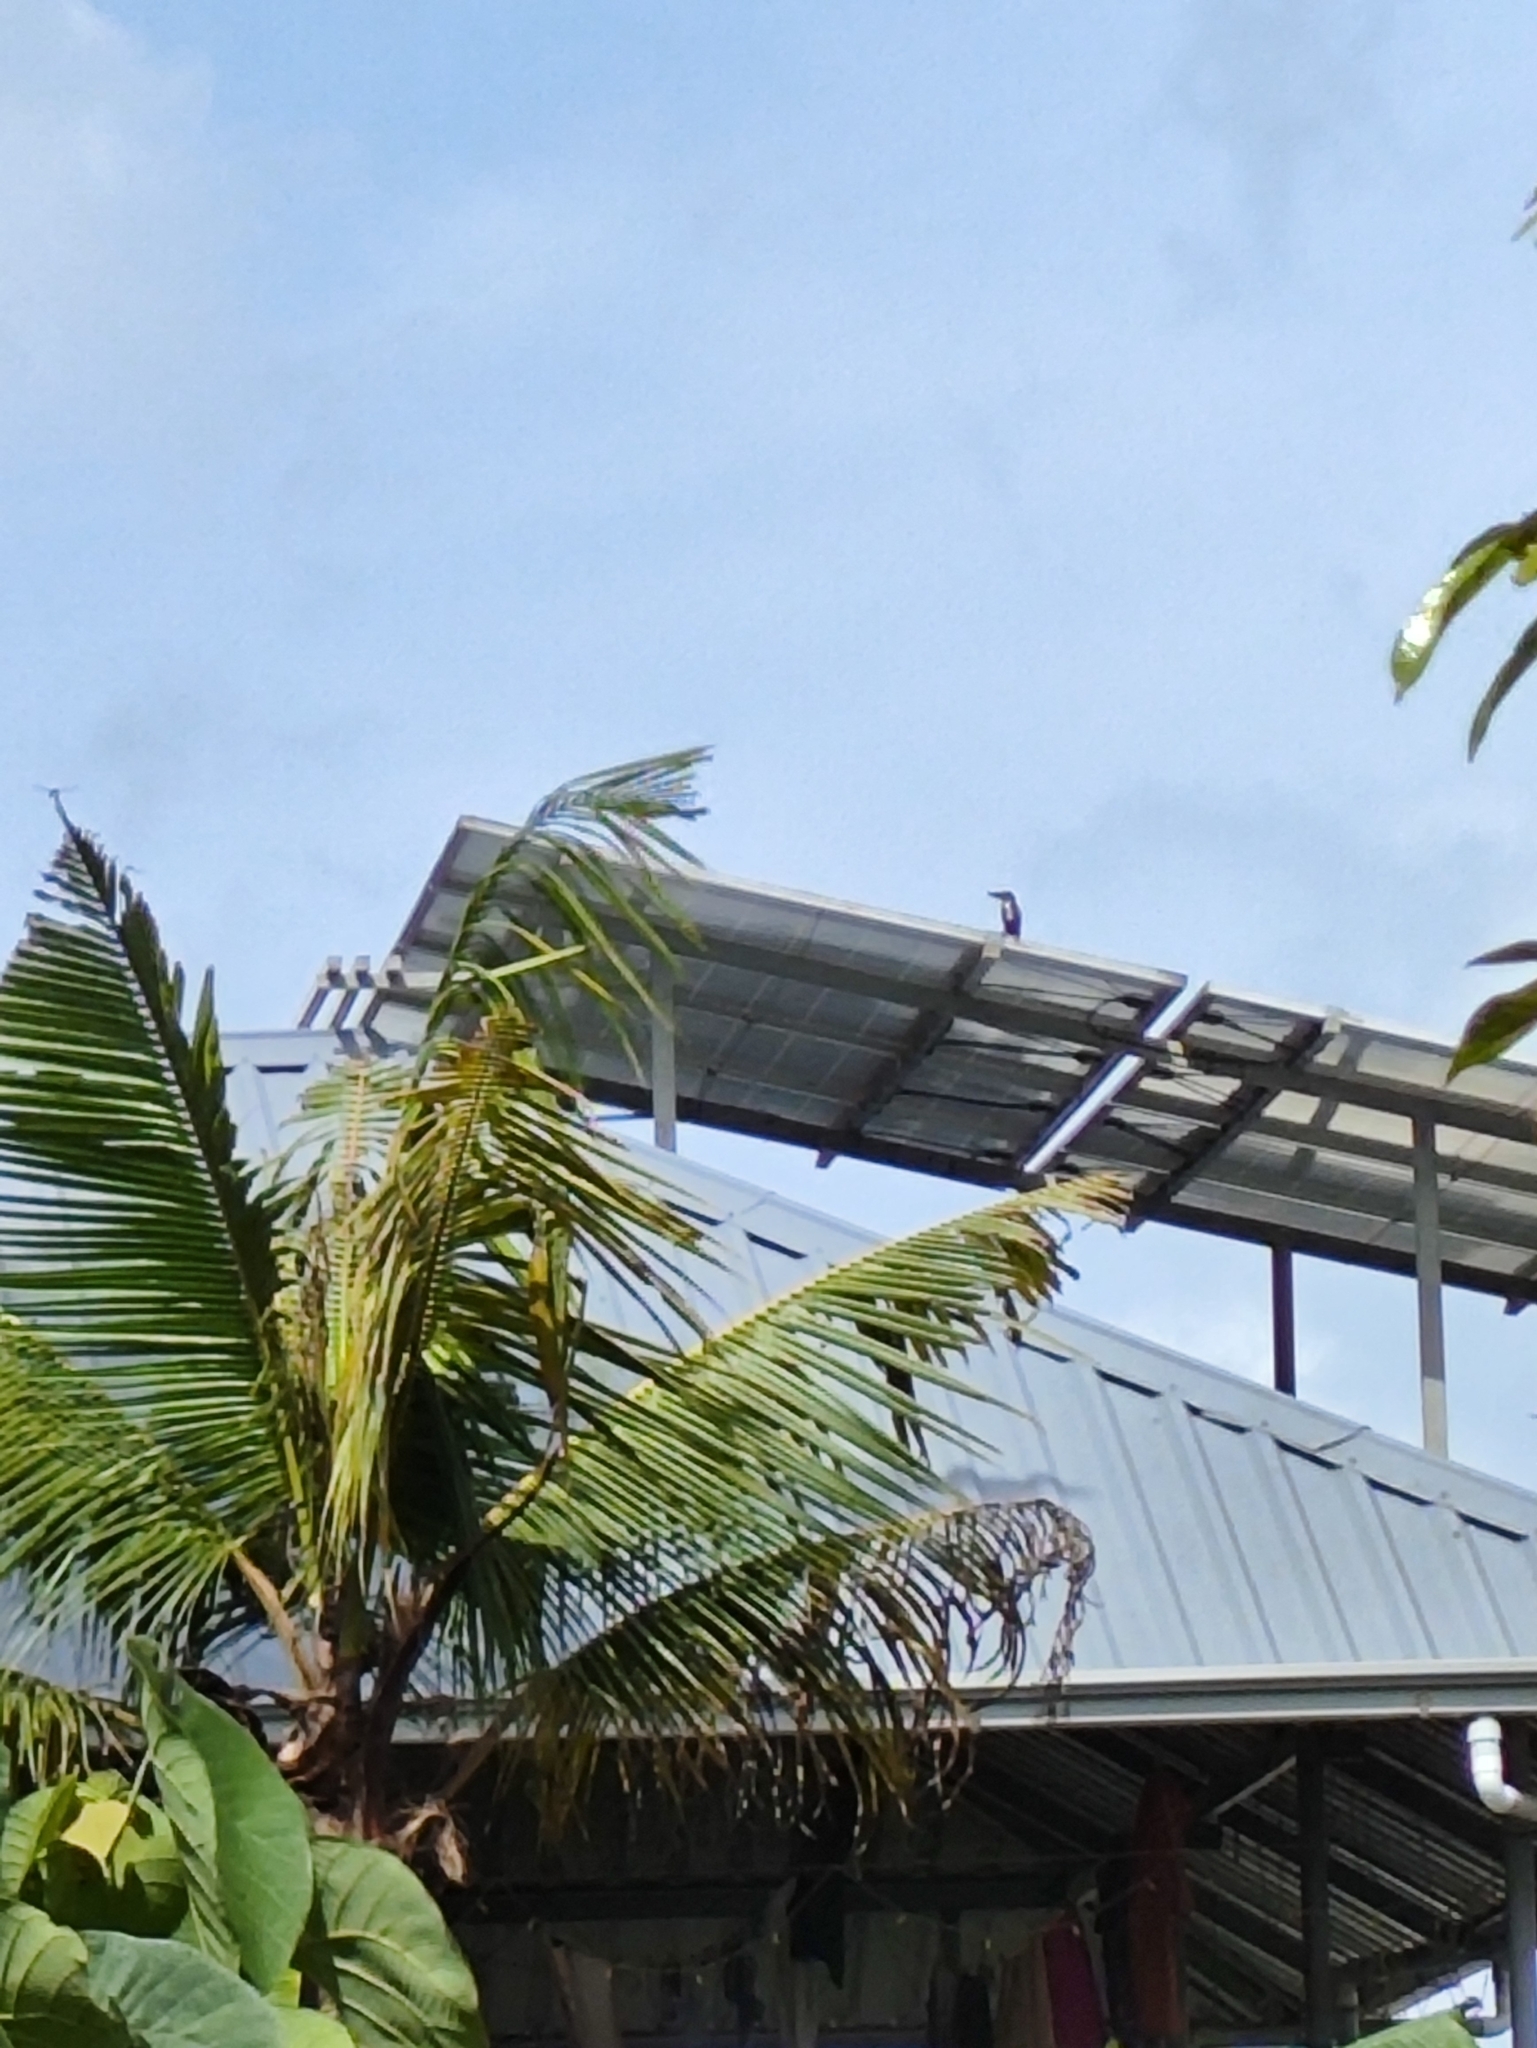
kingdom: Animalia
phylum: Chordata
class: Aves
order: Coraciiformes
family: Alcedinidae
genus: Halcyon
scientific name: Halcyon smyrnensis
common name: White-throated kingfisher
